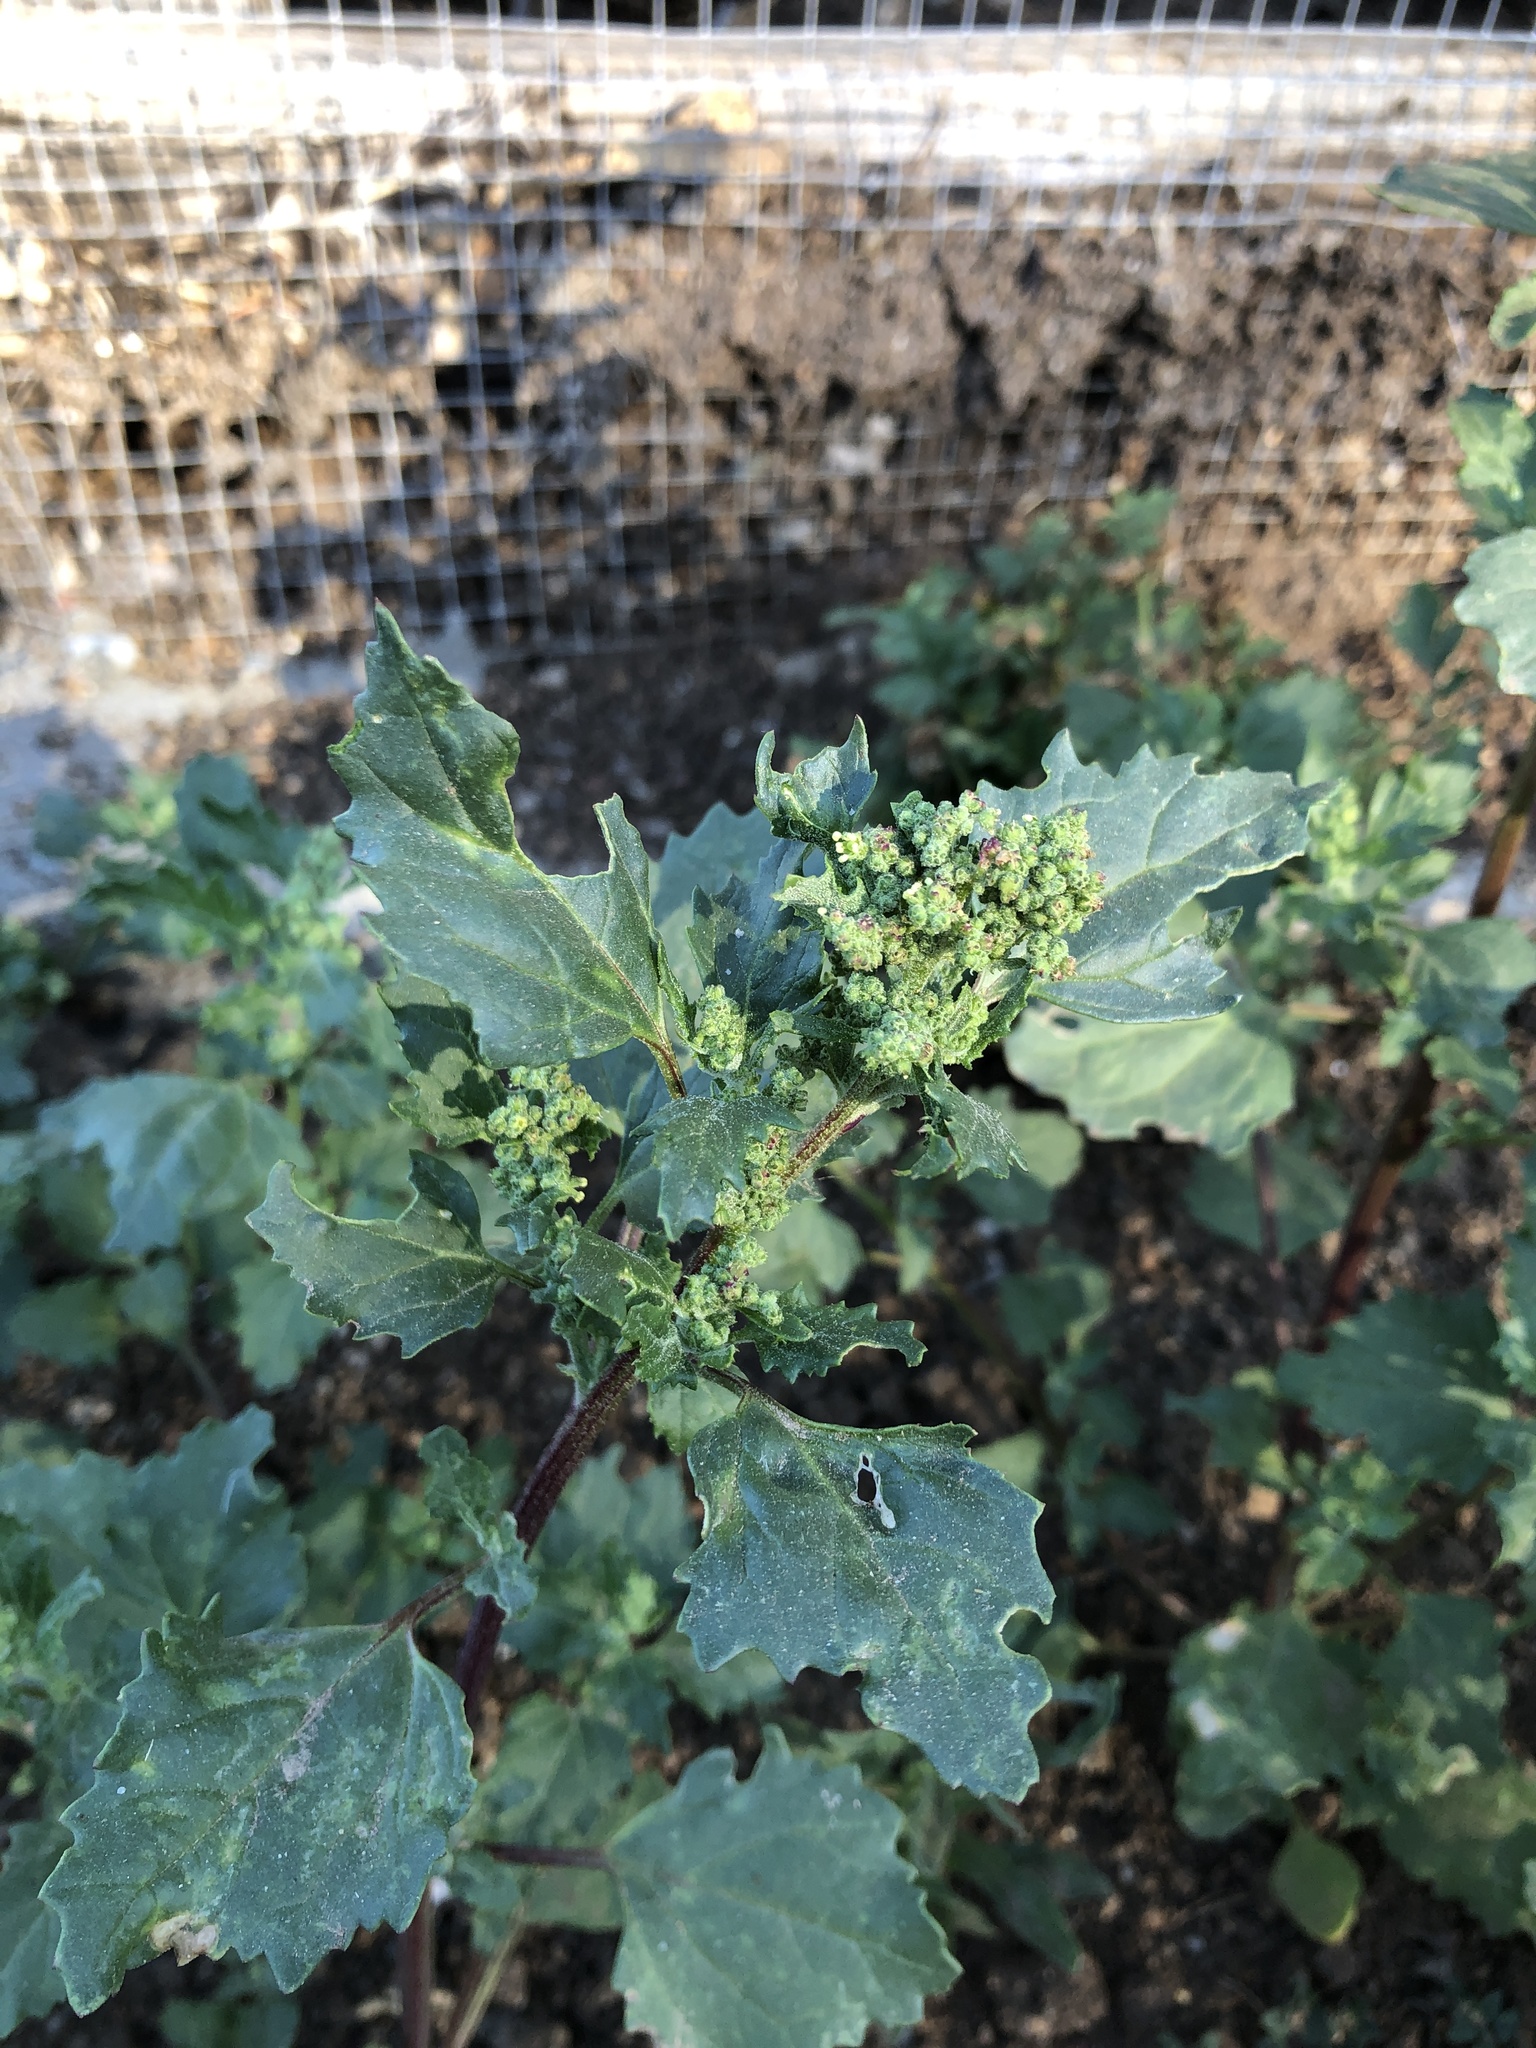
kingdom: Plantae
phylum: Tracheophyta
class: Magnoliopsida
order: Caryophyllales
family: Amaranthaceae
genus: Chenopodiastrum
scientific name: Chenopodiastrum murale
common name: Sowbane
